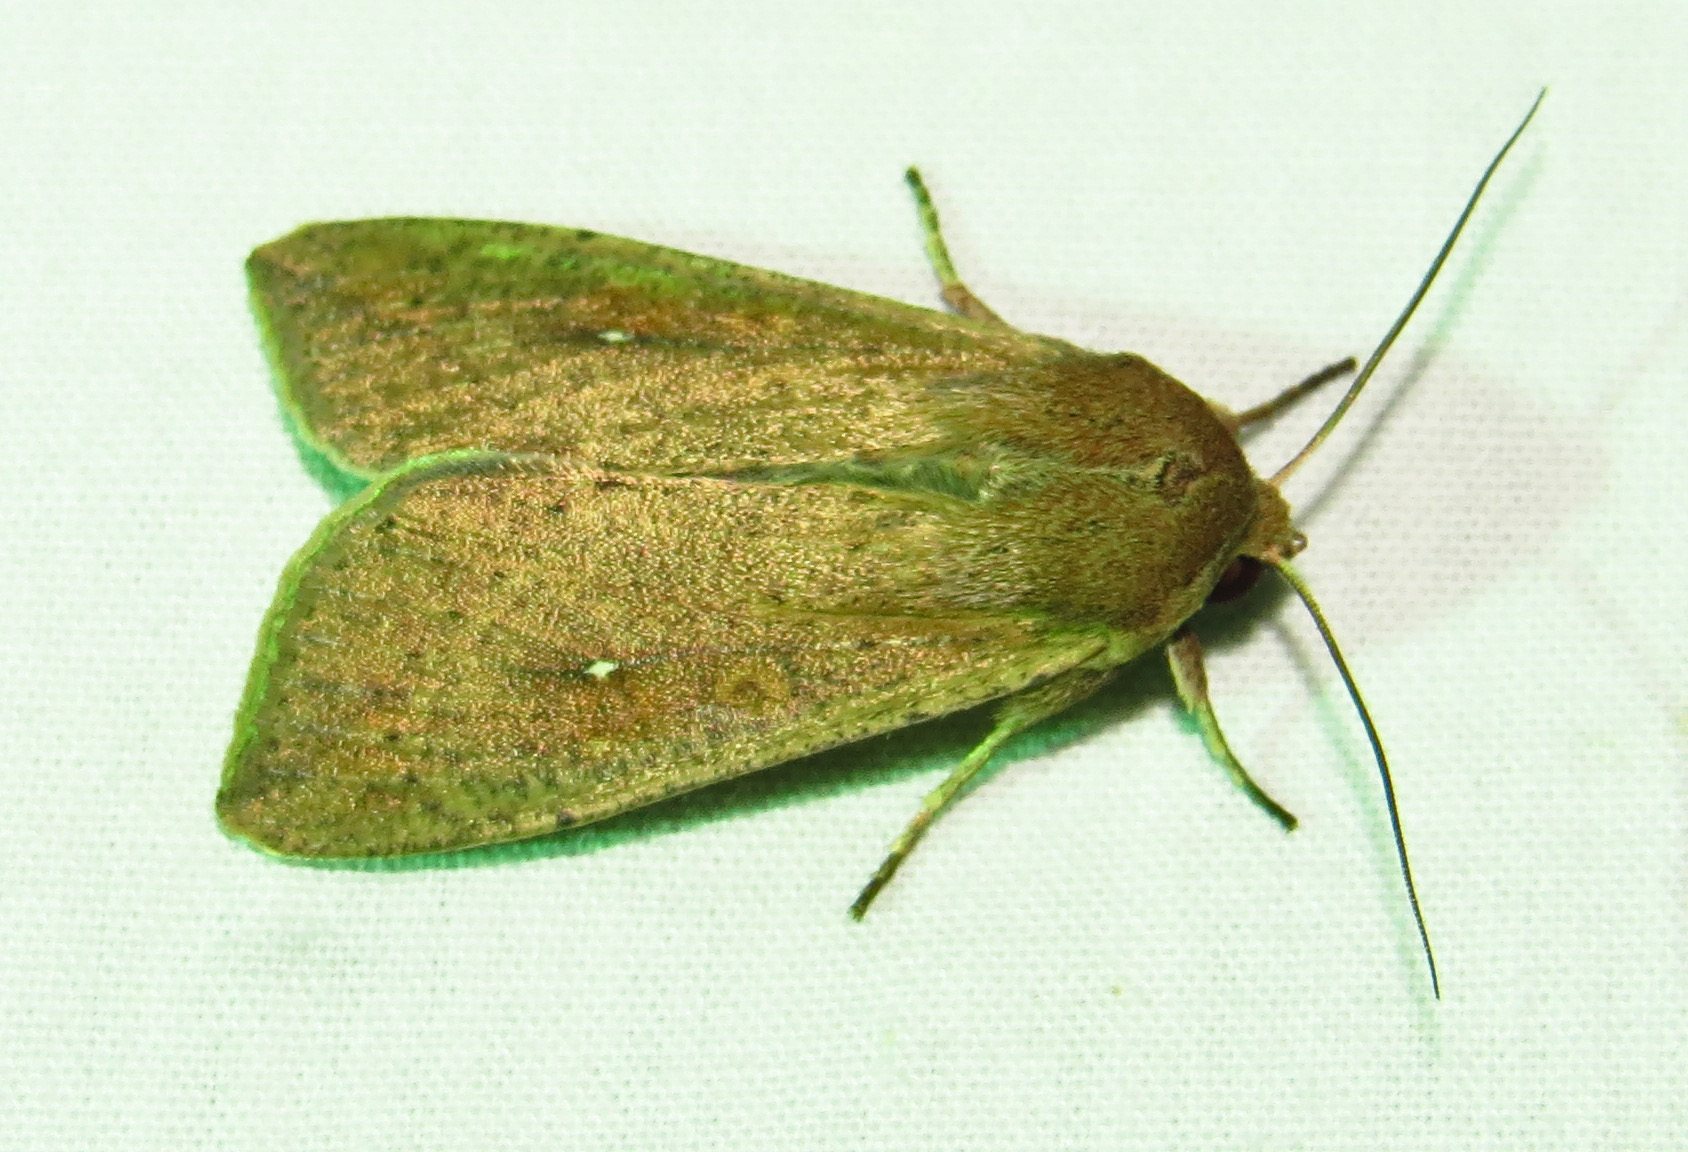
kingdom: Animalia
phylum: Arthropoda
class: Insecta
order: Lepidoptera
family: Noctuidae
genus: Mythimna
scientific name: Mythimna unipuncta
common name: White-speck
